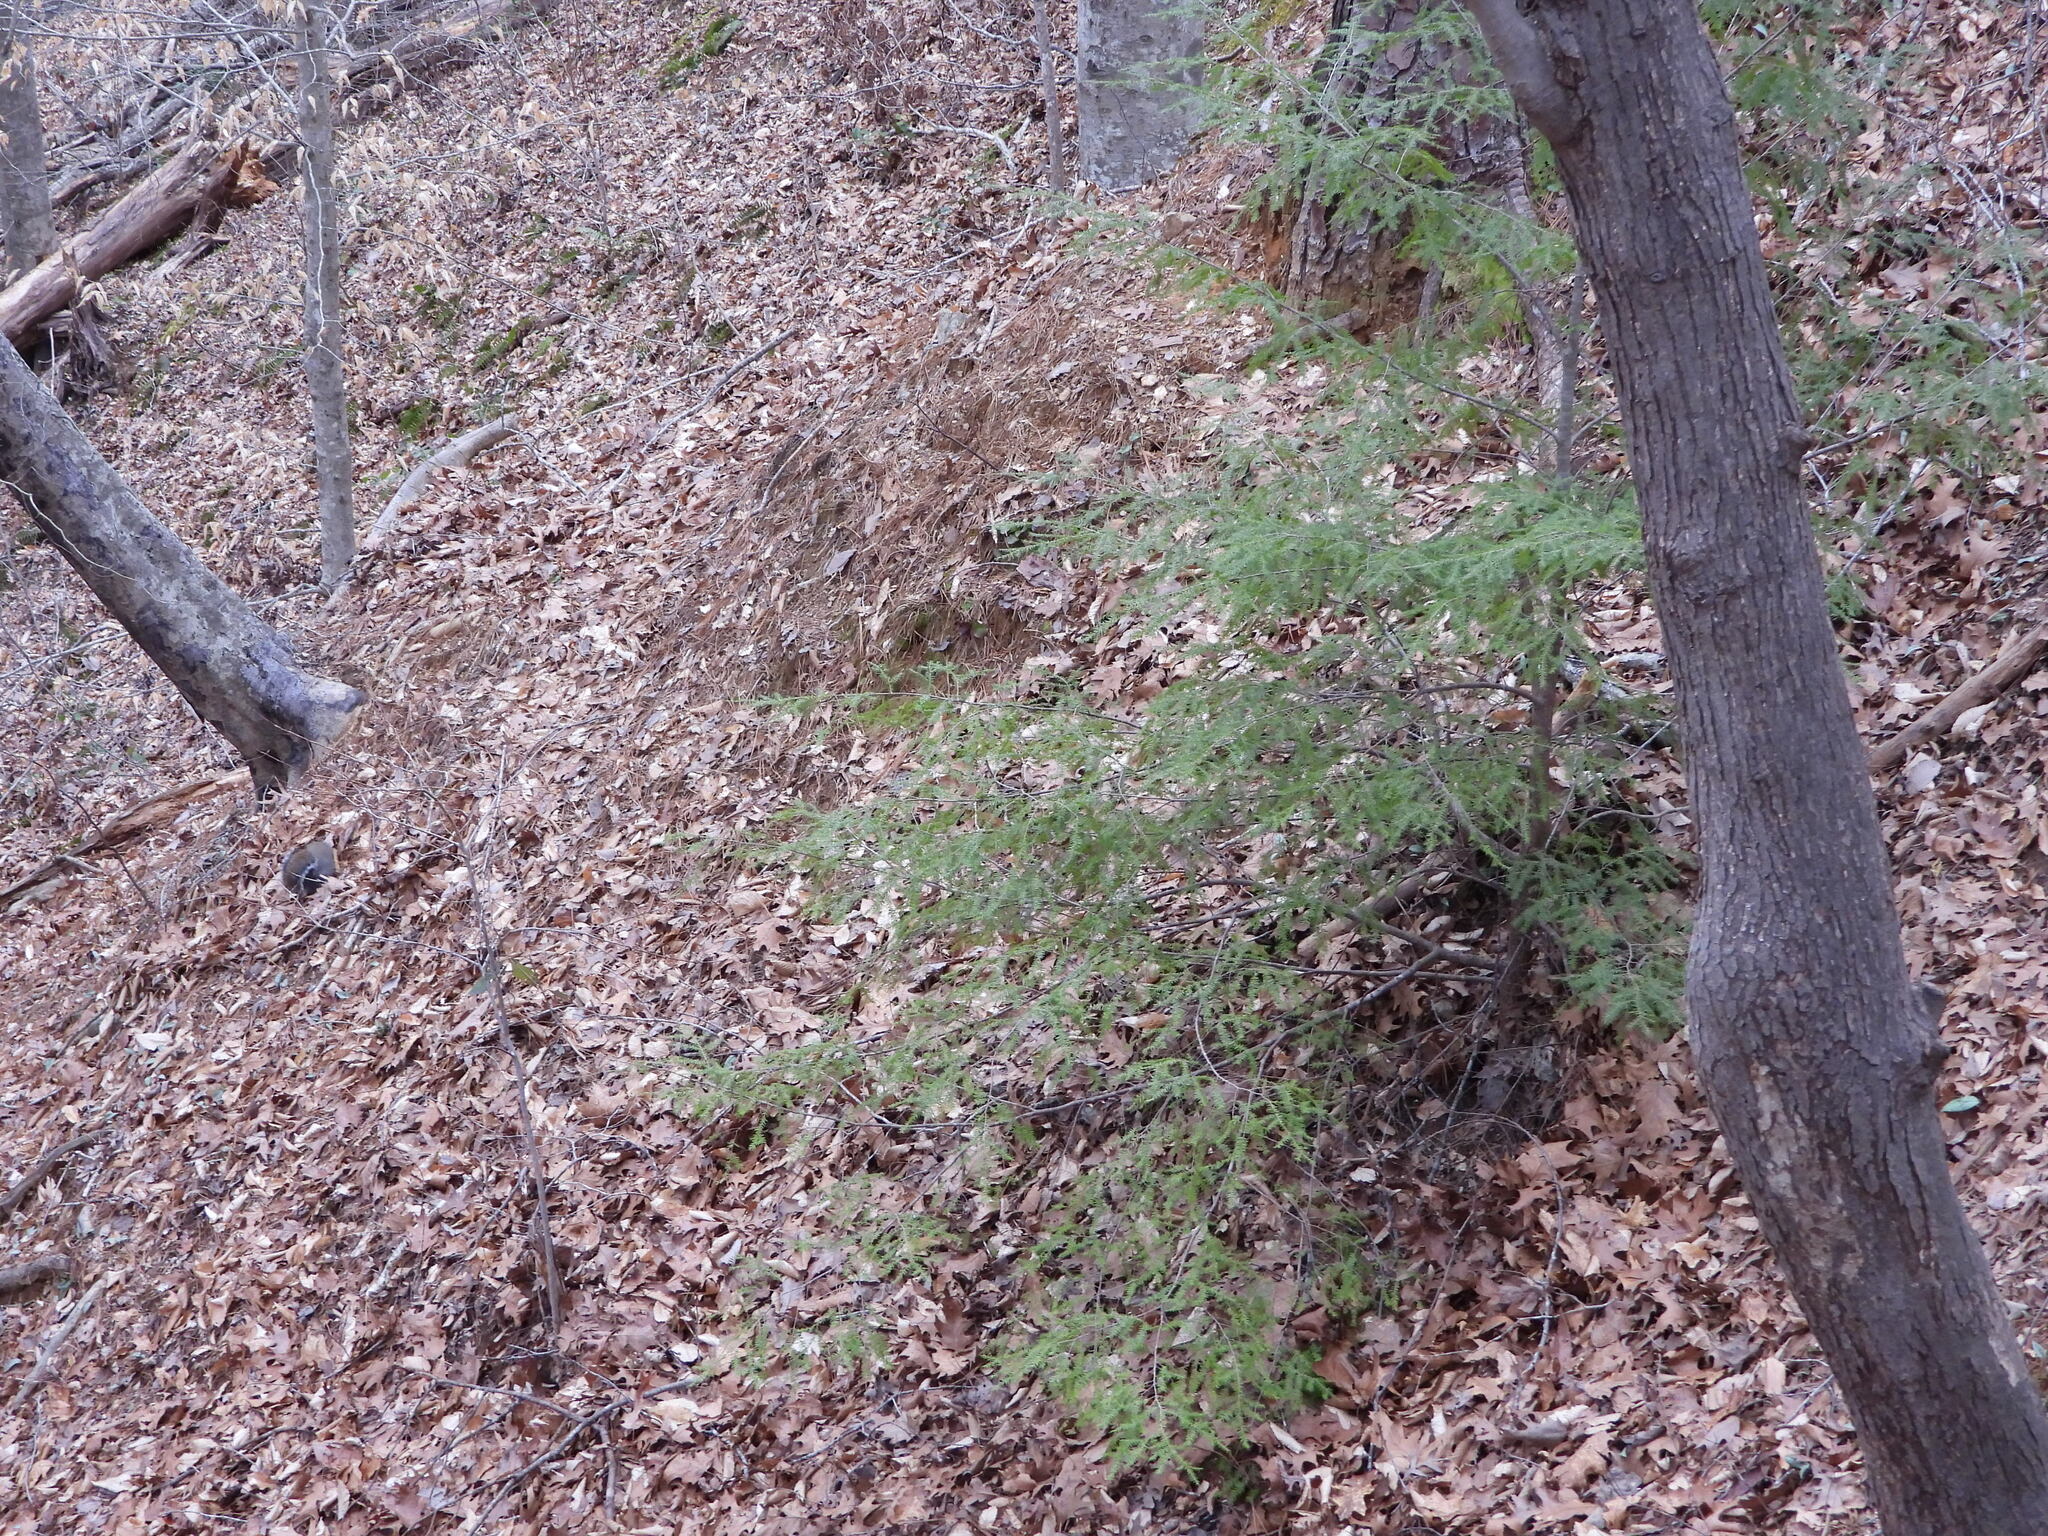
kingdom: Plantae
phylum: Tracheophyta
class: Pinopsida
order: Pinales
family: Pinaceae
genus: Tsuga
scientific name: Tsuga canadensis
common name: Eastern hemlock
